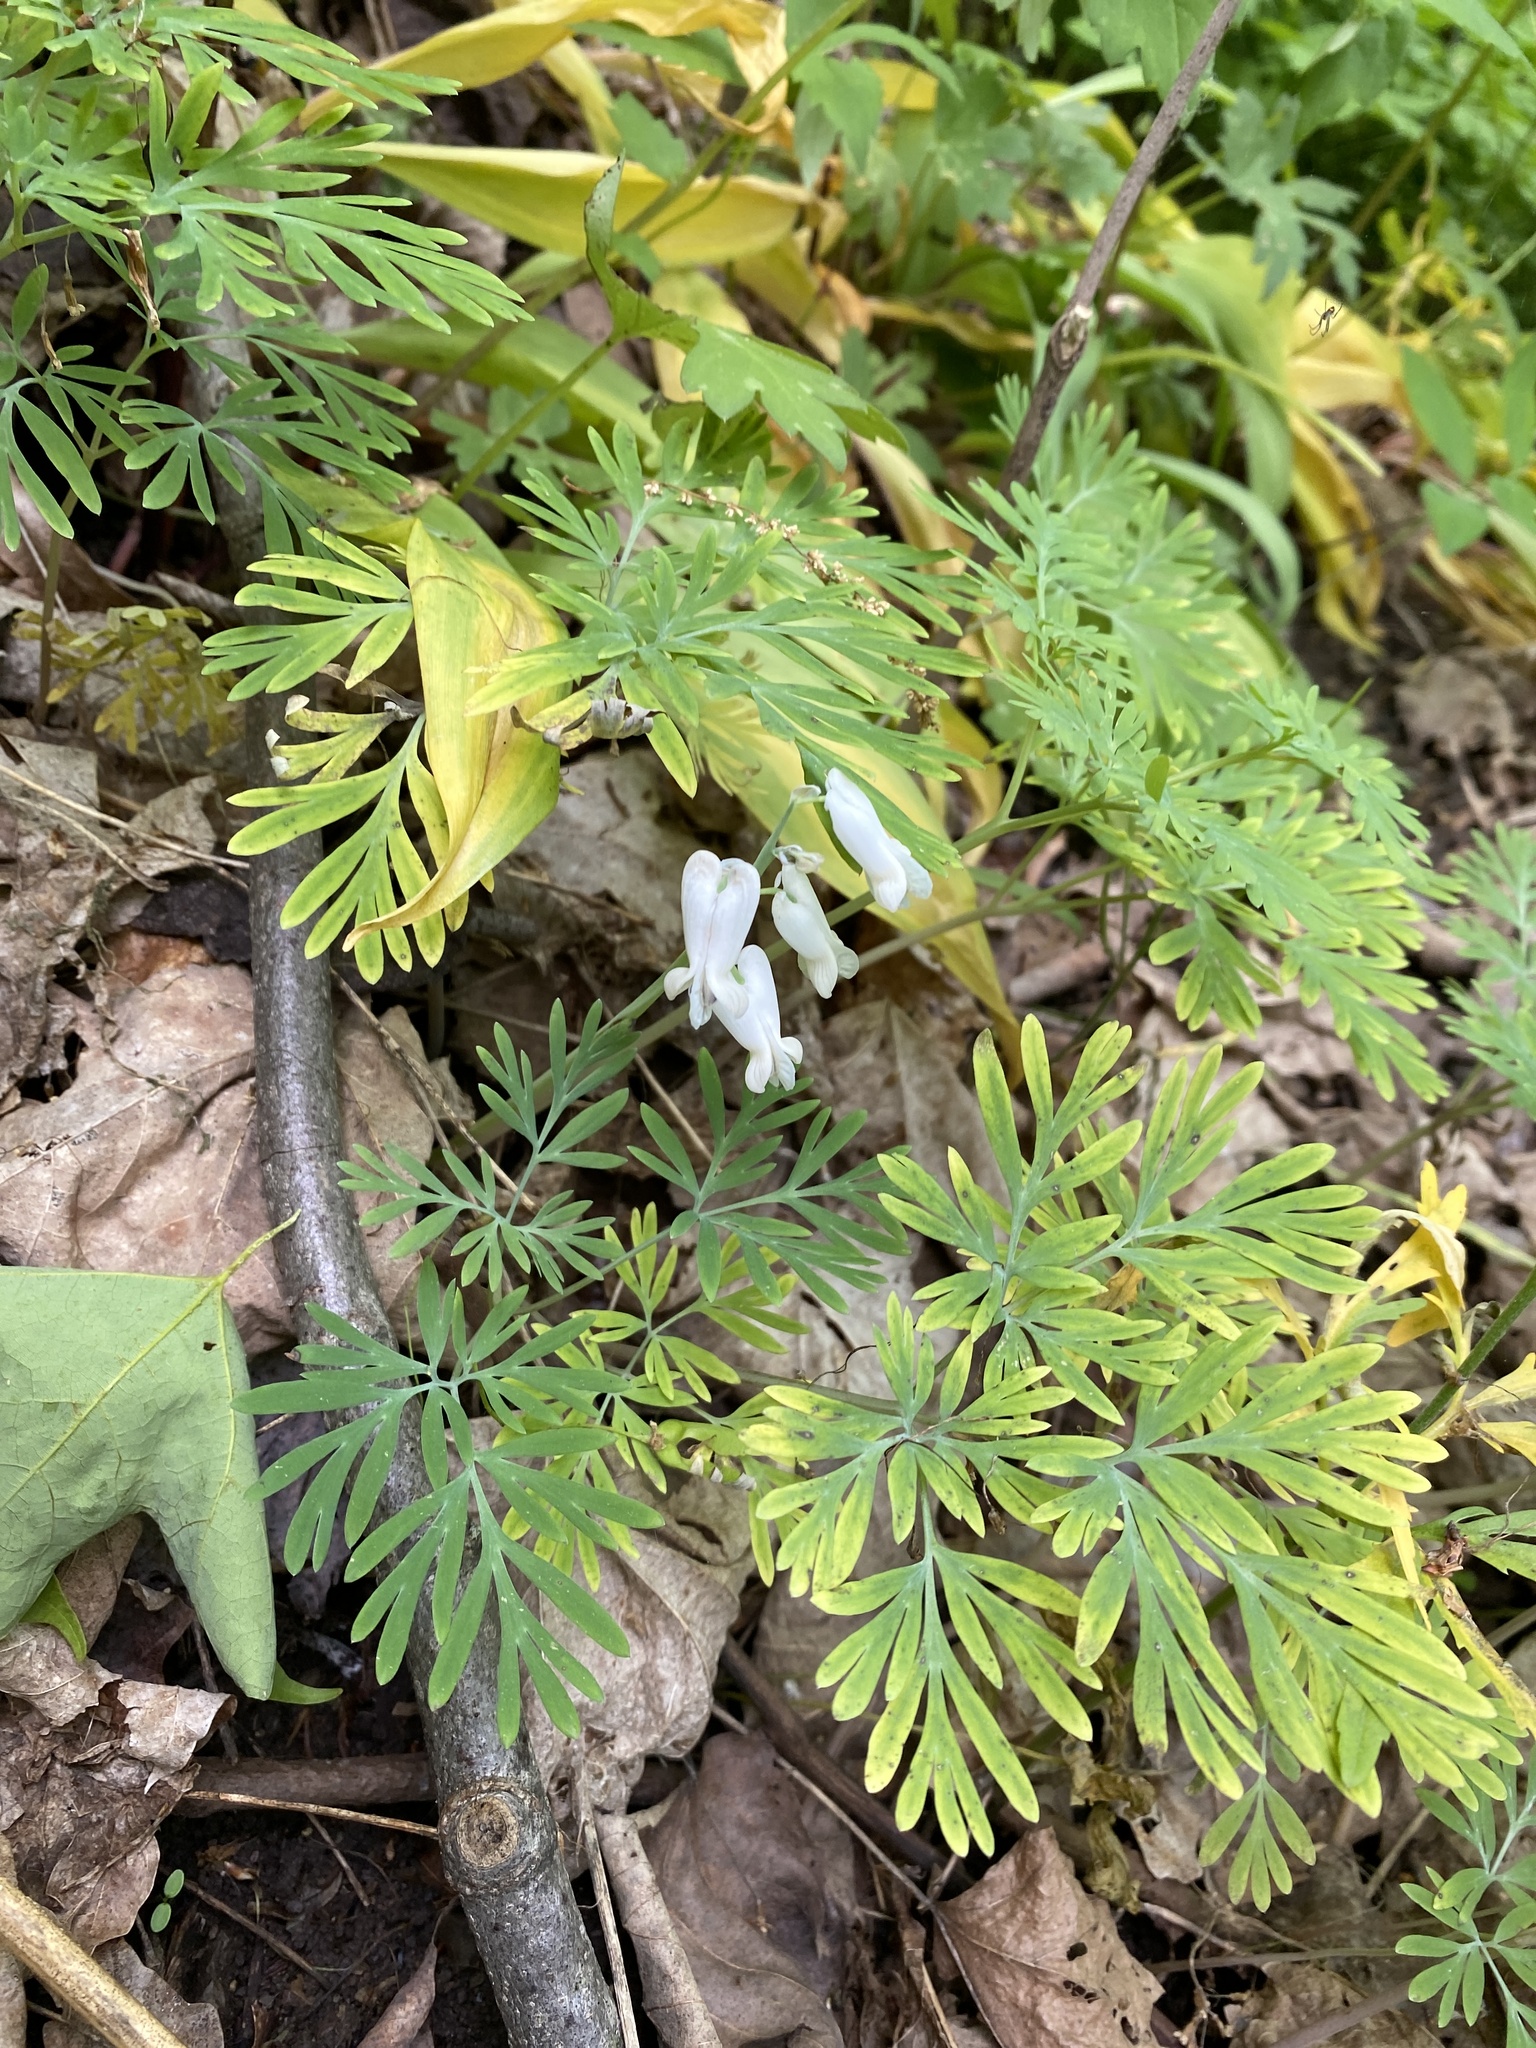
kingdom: Plantae
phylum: Tracheophyta
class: Magnoliopsida
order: Ranunculales
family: Papaveraceae
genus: Dicentra
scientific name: Dicentra canadensis
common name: Squirrel-corn
